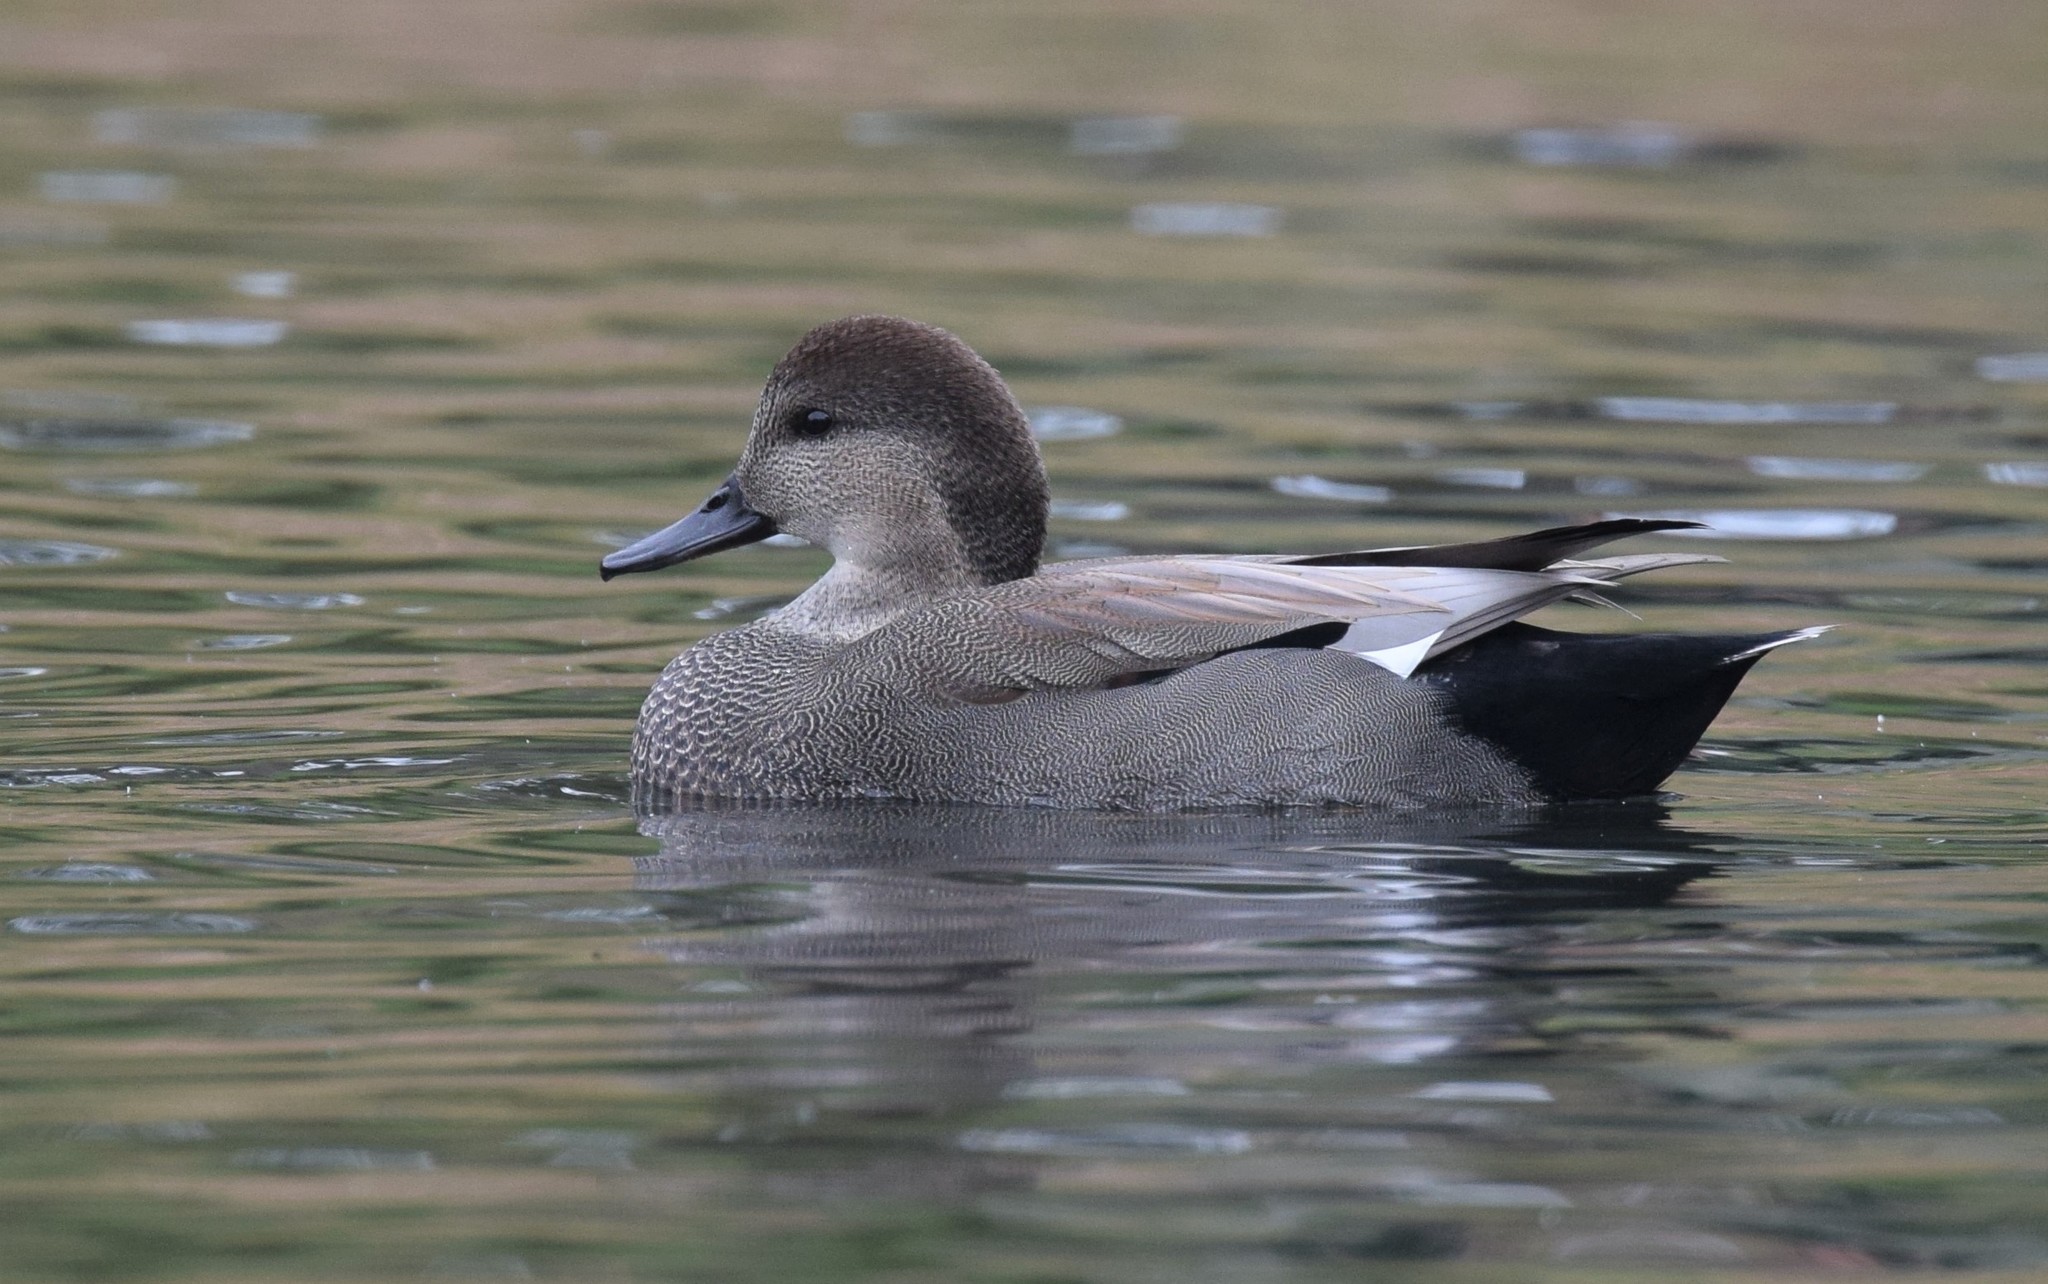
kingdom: Animalia
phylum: Chordata
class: Aves
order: Anseriformes
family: Anatidae
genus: Mareca
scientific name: Mareca strepera
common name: Gadwall
